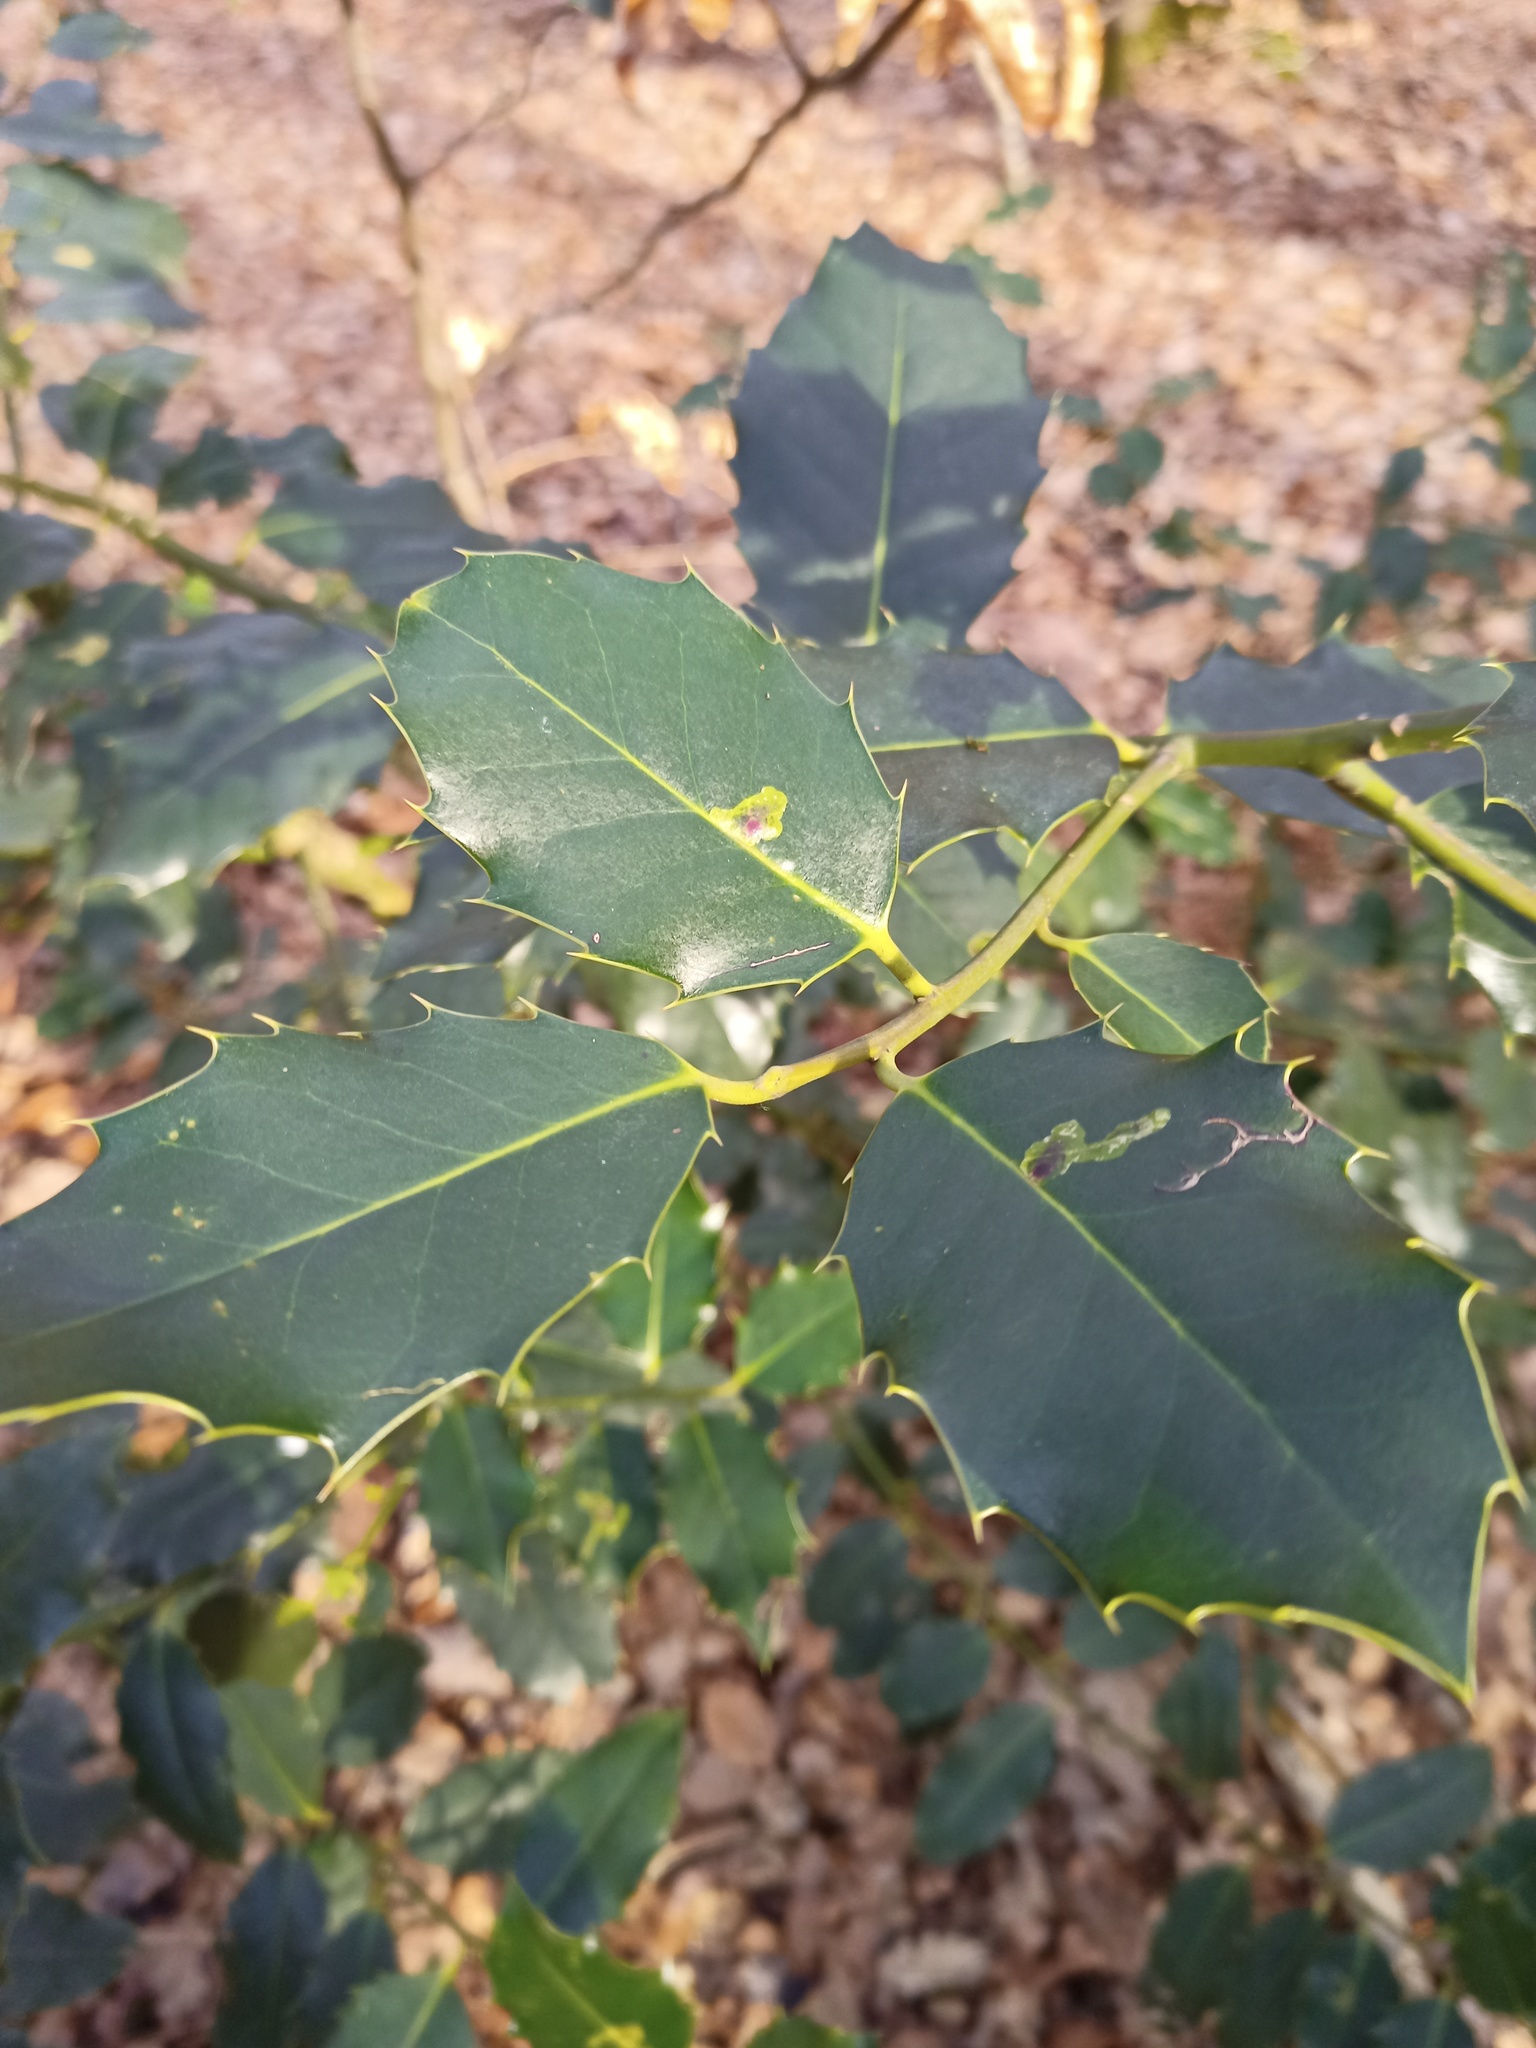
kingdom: Plantae
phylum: Tracheophyta
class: Magnoliopsida
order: Aquifoliales
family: Aquifoliaceae
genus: Ilex
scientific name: Ilex aquifolium
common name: English holly
